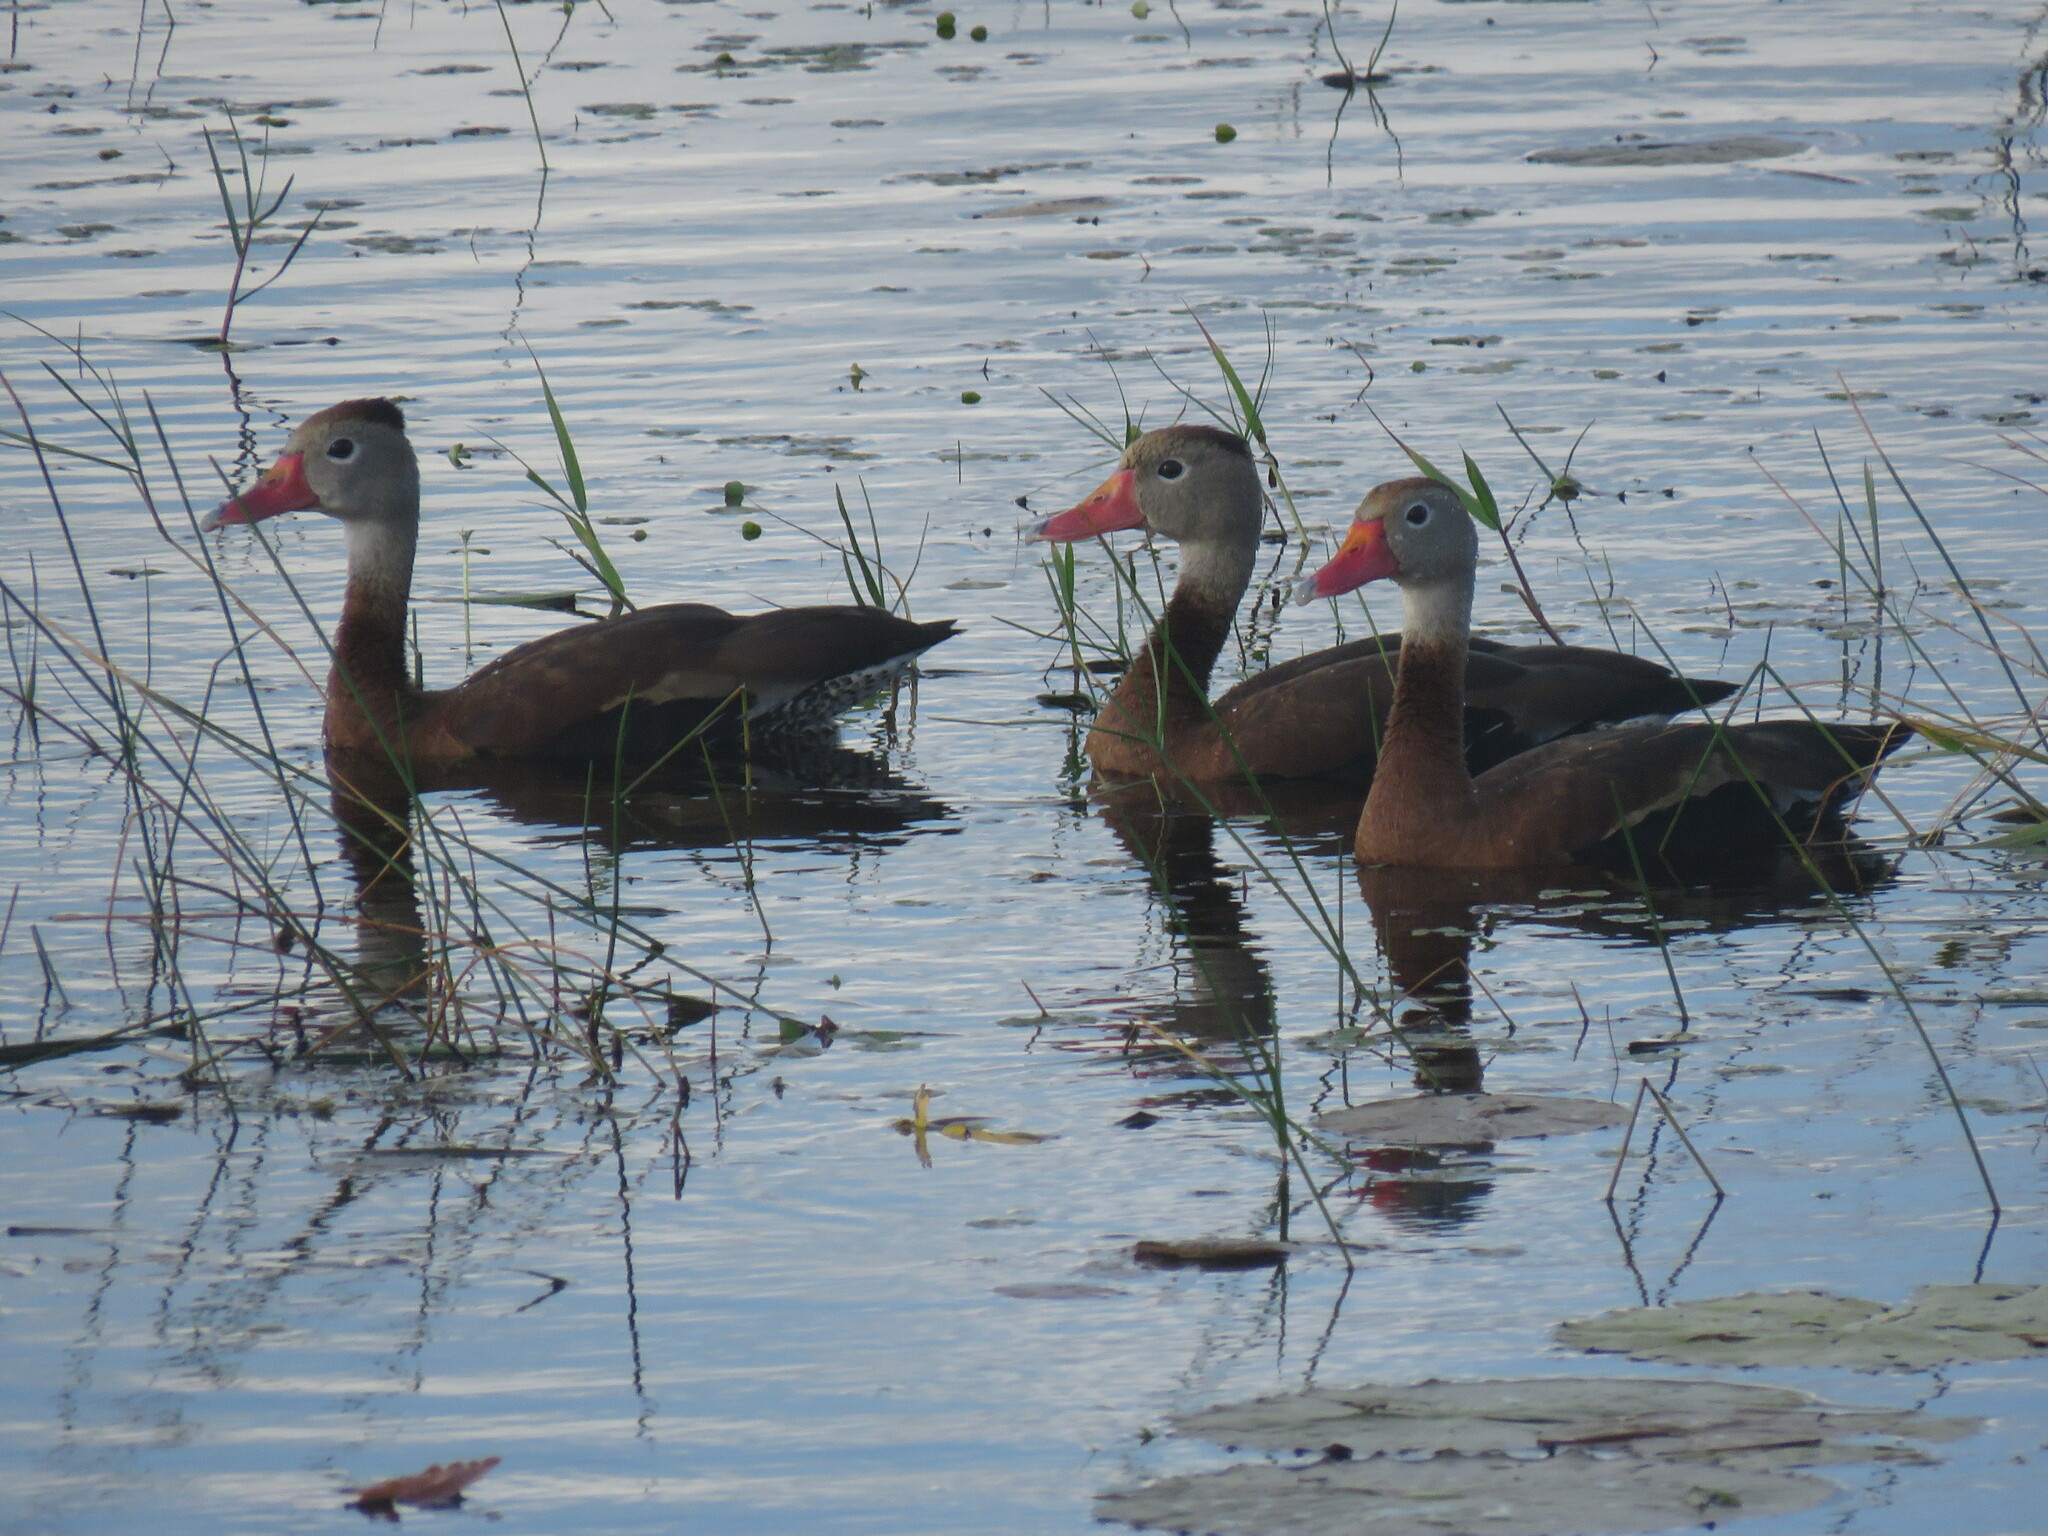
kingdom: Animalia
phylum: Chordata
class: Aves
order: Anseriformes
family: Anatidae
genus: Dendrocygna
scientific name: Dendrocygna autumnalis
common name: Black-bellied whistling duck
